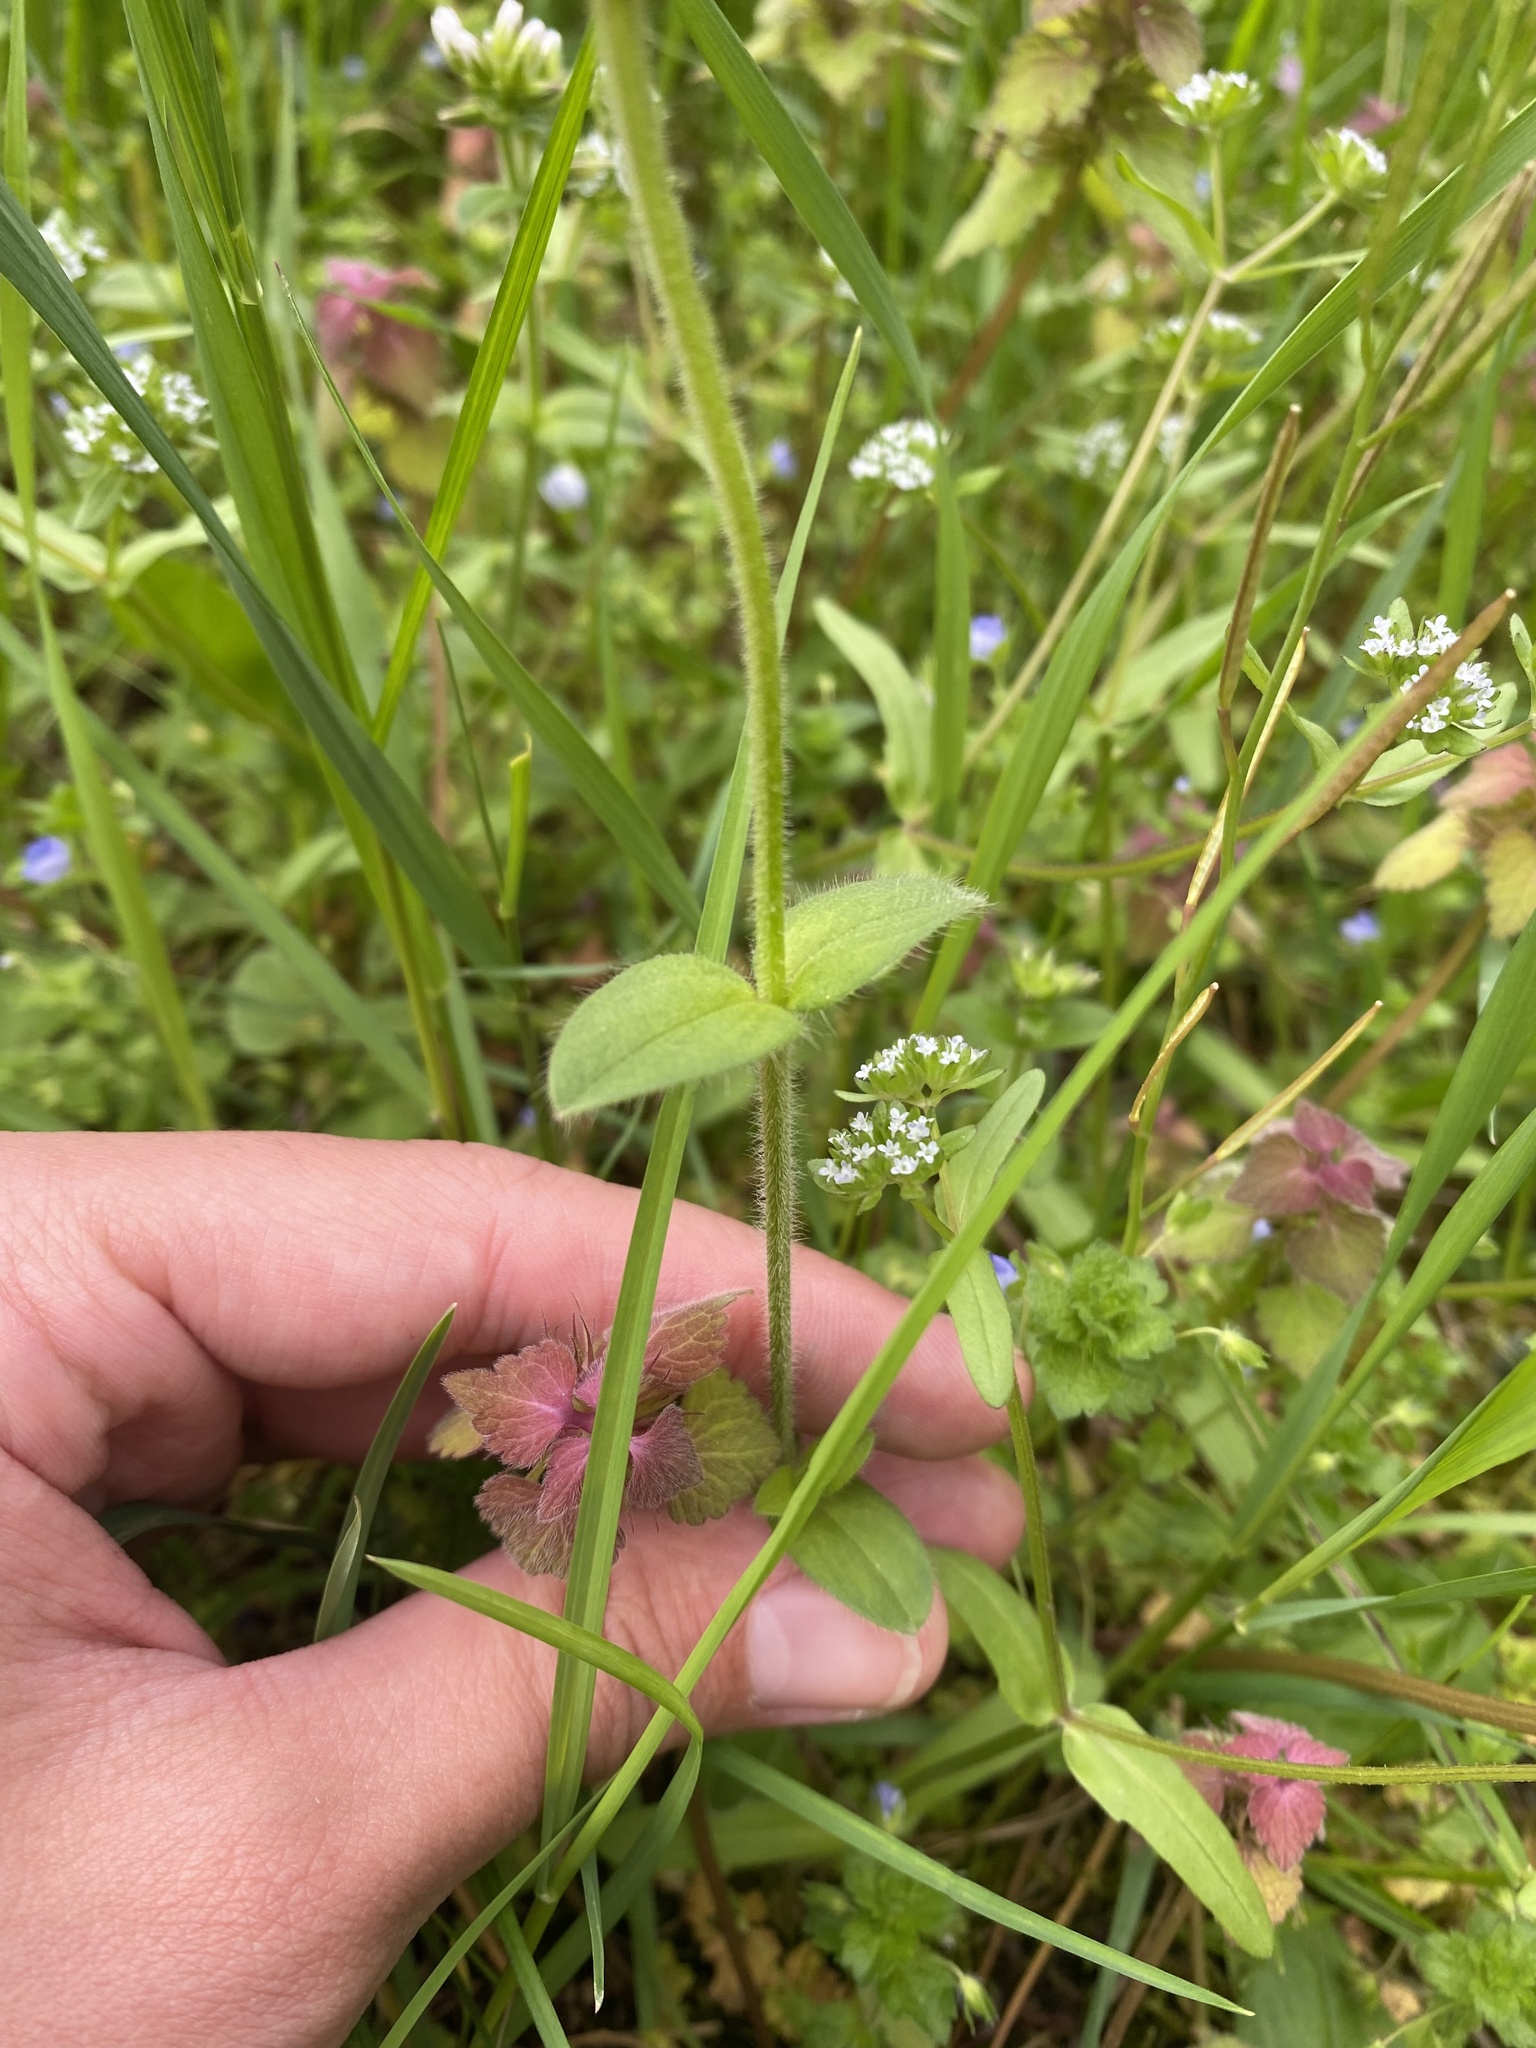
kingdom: Plantae
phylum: Tracheophyta
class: Magnoliopsida
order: Caryophyllales
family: Caryophyllaceae
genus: Cerastium
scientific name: Cerastium glomeratum
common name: Sticky chickweed
